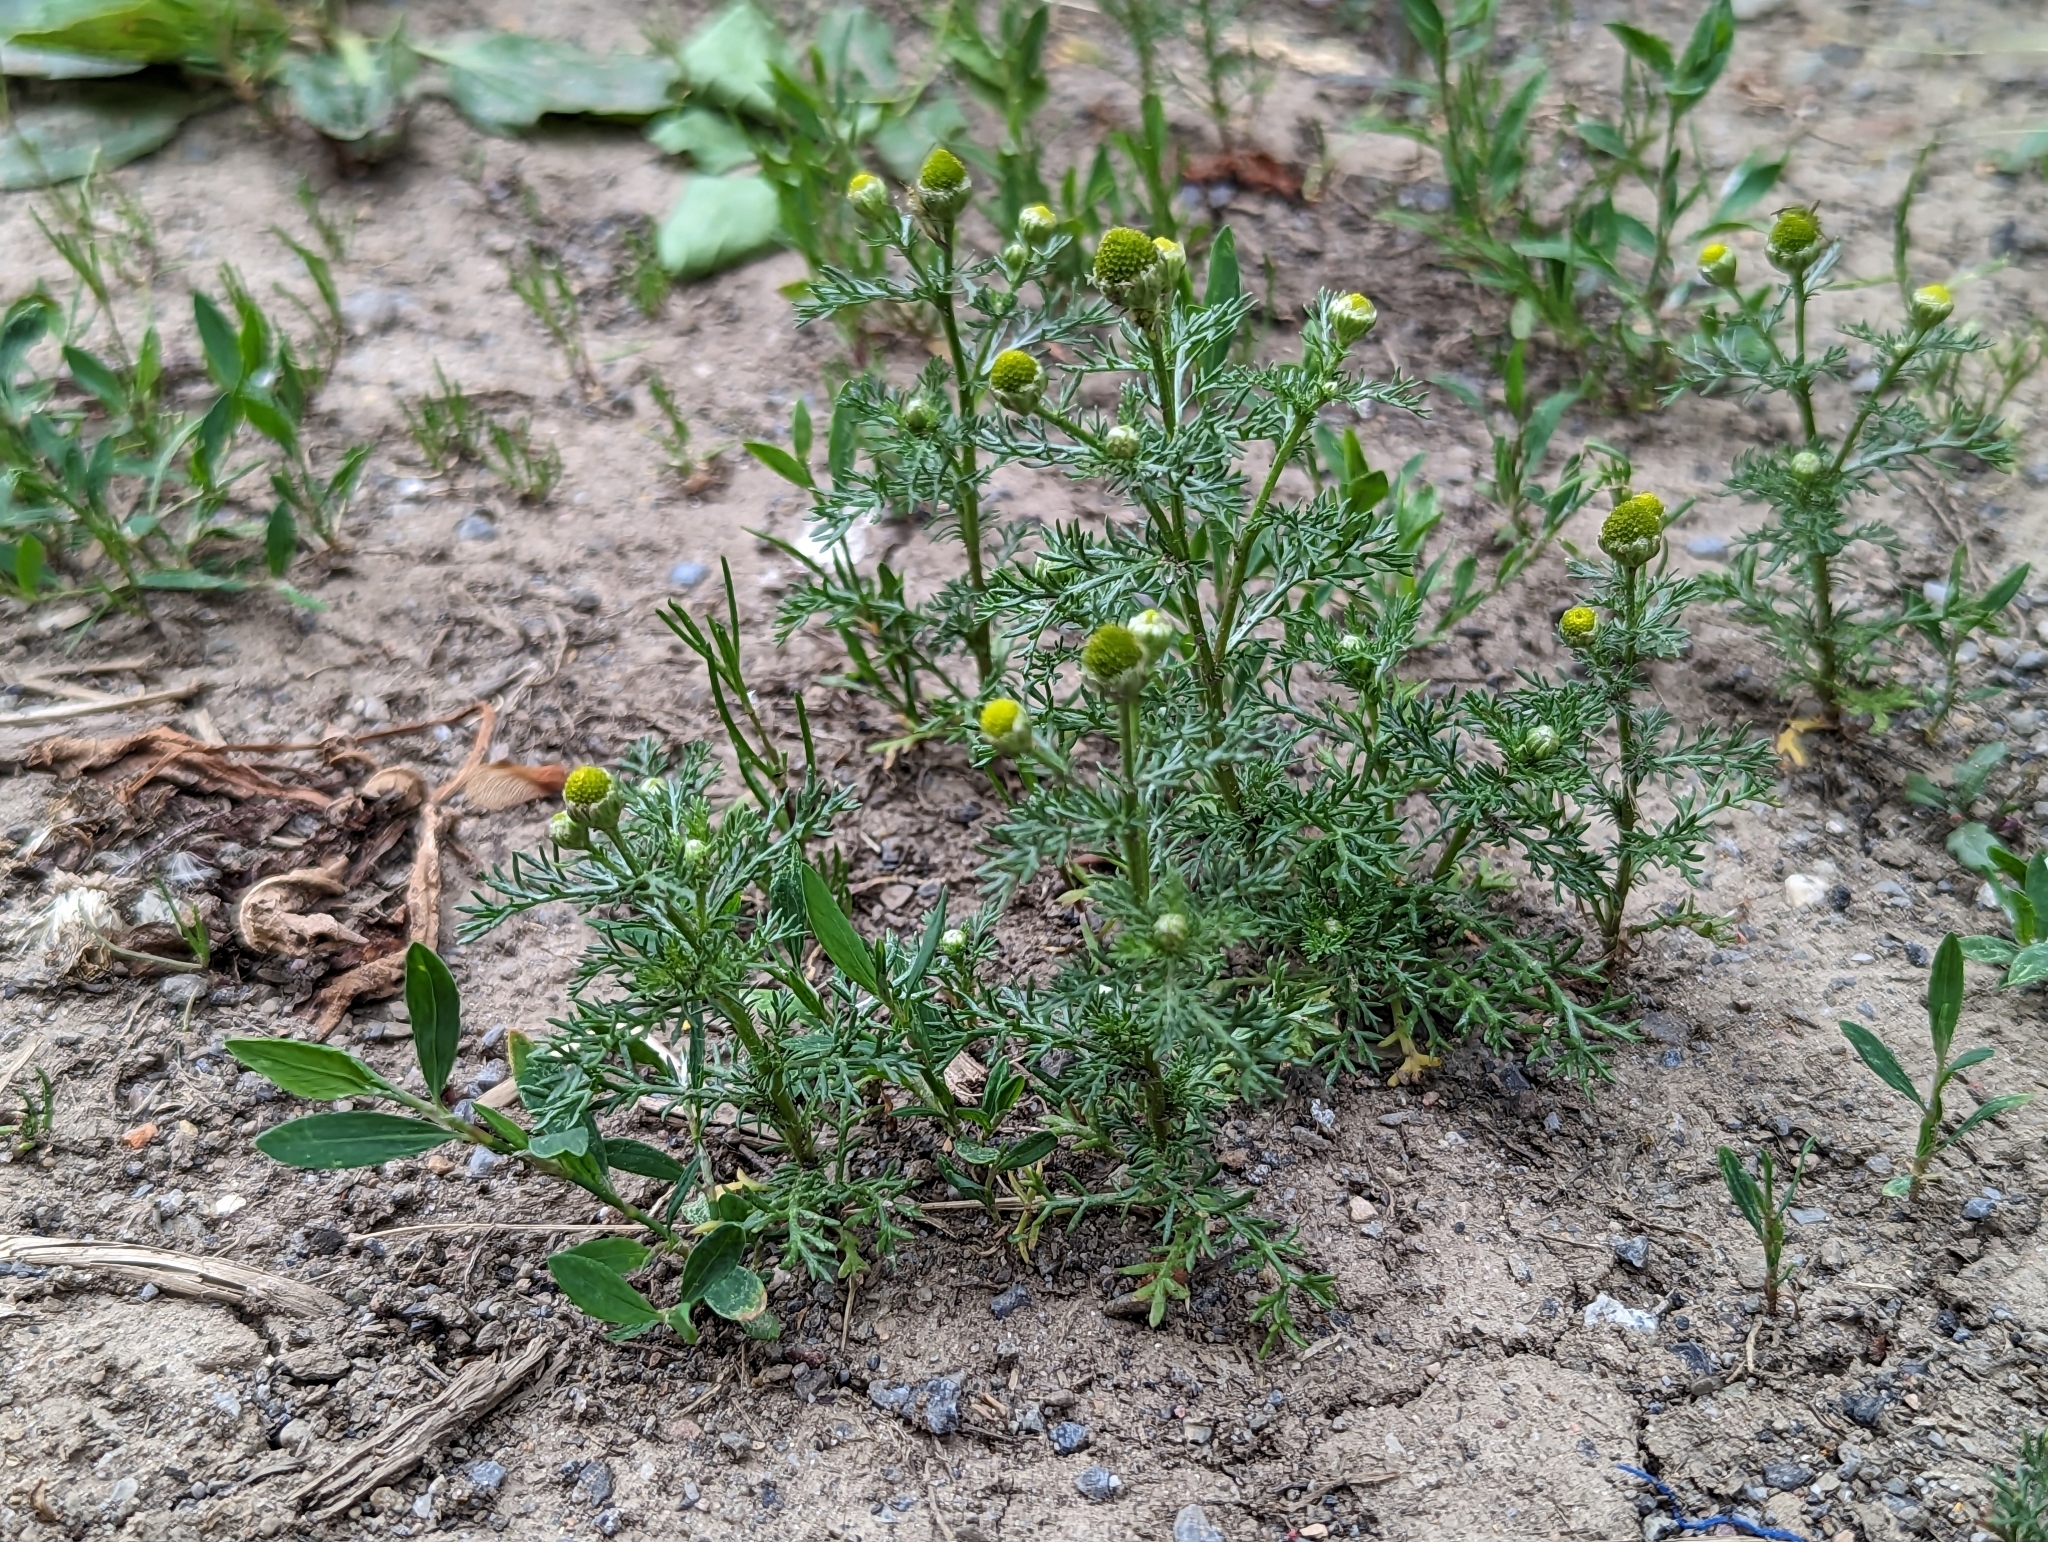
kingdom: Plantae
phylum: Tracheophyta
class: Magnoliopsida
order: Asterales
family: Asteraceae
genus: Matricaria
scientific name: Matricaria discoidea
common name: Disc mayweed
